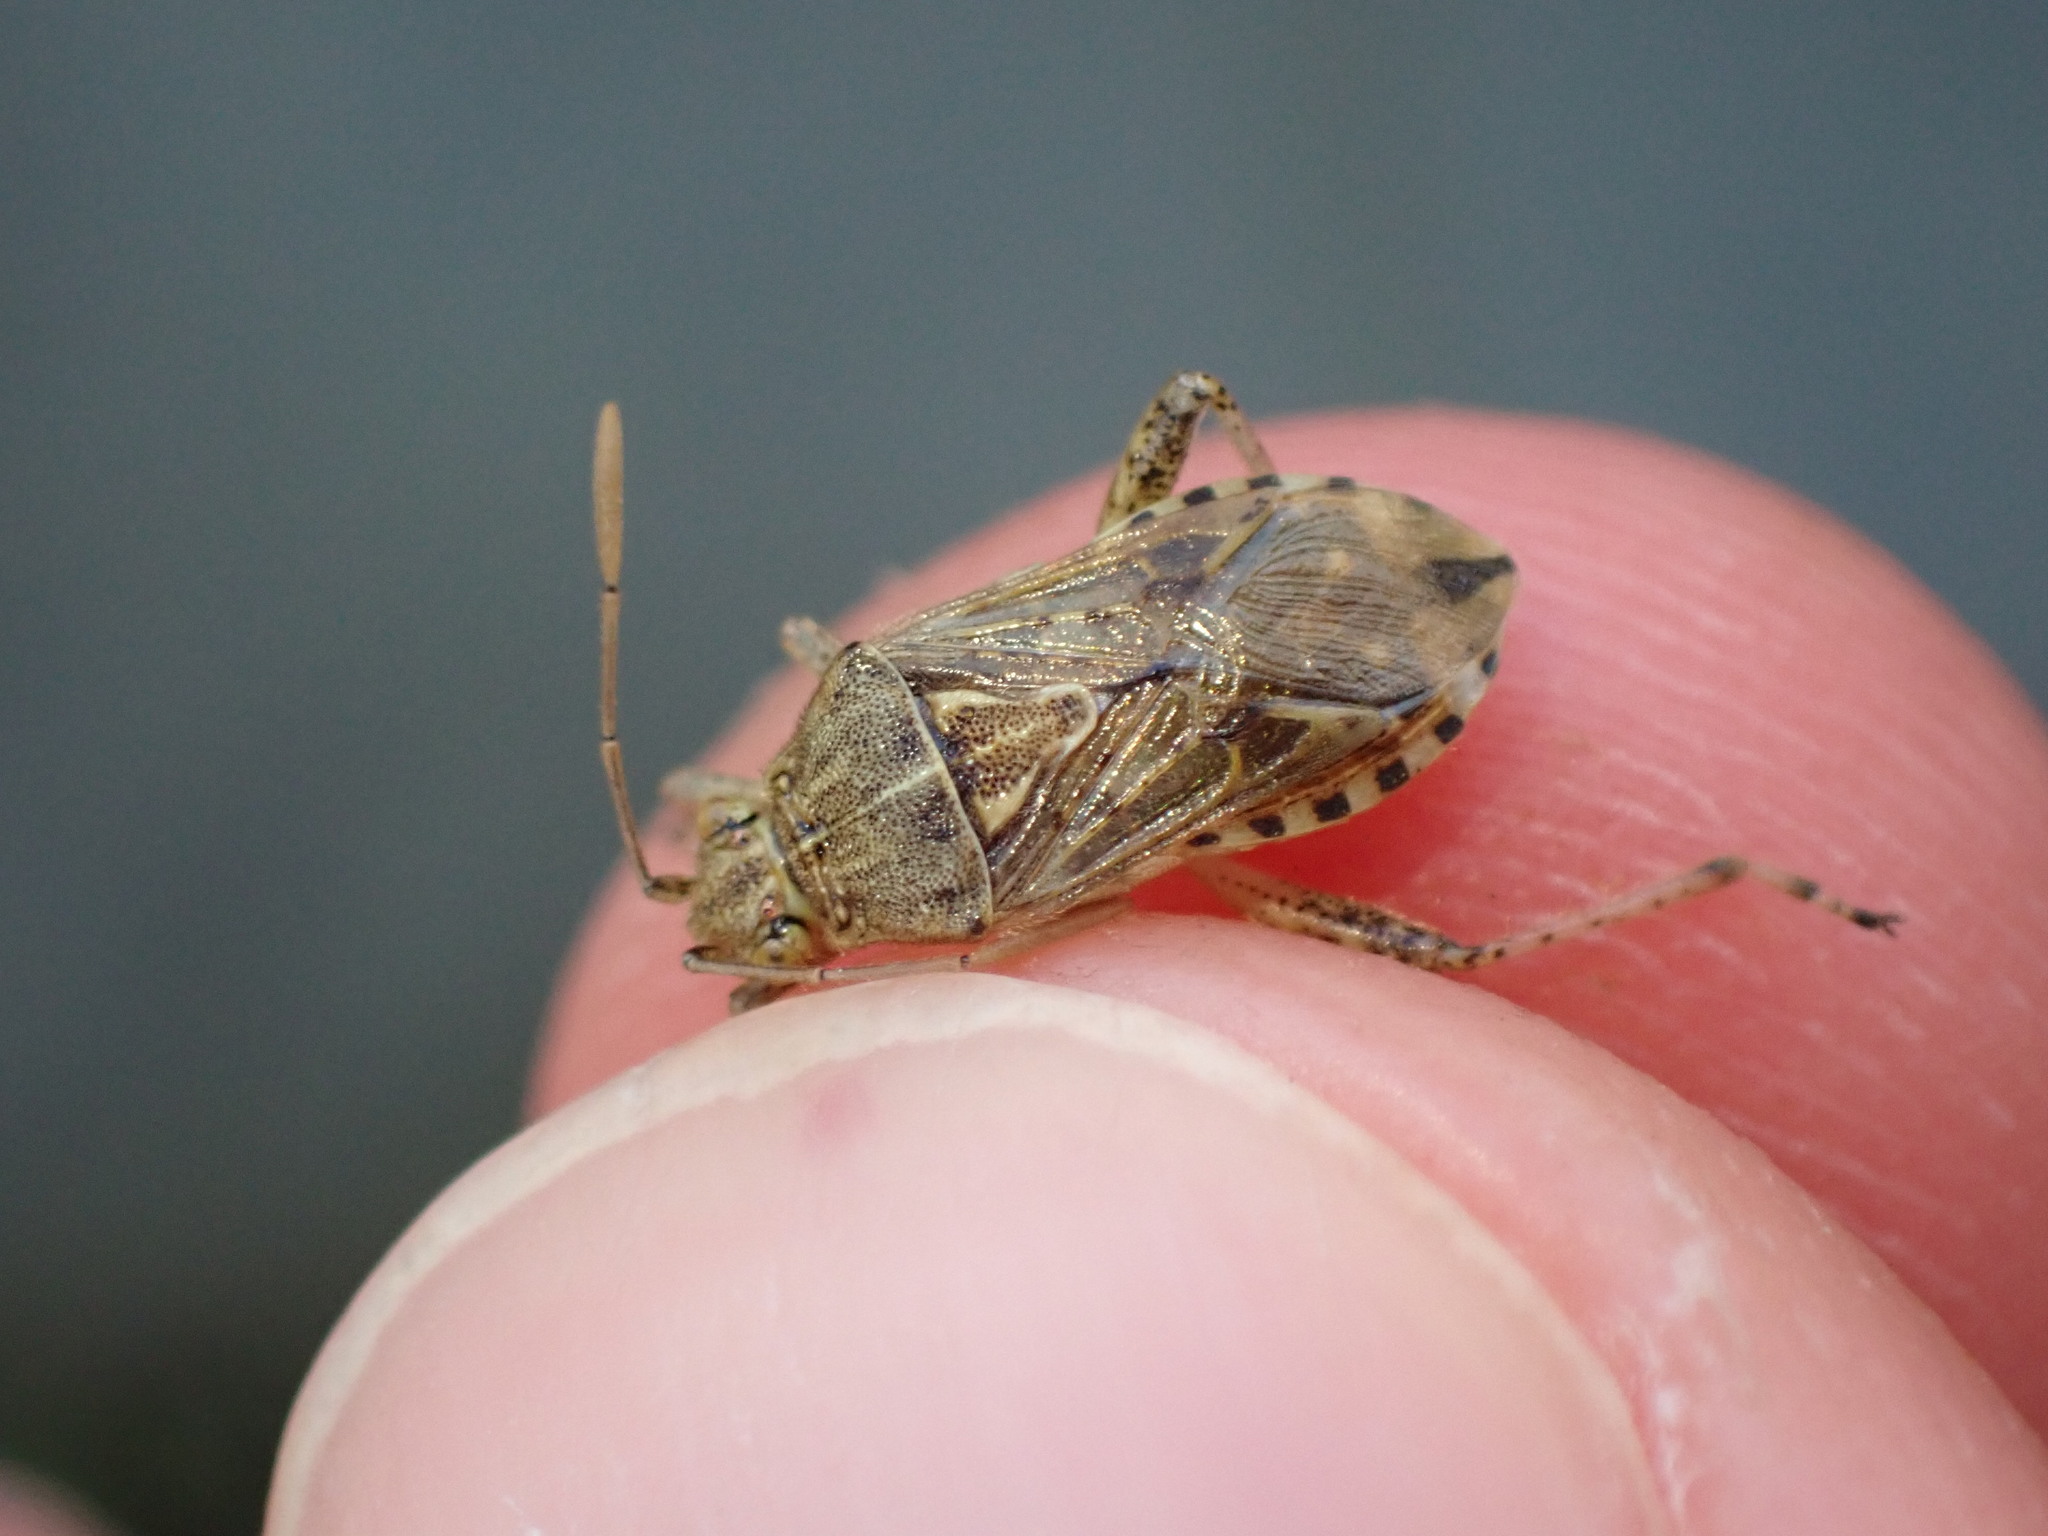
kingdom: Animalia
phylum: Arthropoda
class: Insecta
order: Hemiptera
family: Rhopalidae
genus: Stictopleurus
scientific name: Stictopleurus abutilon
